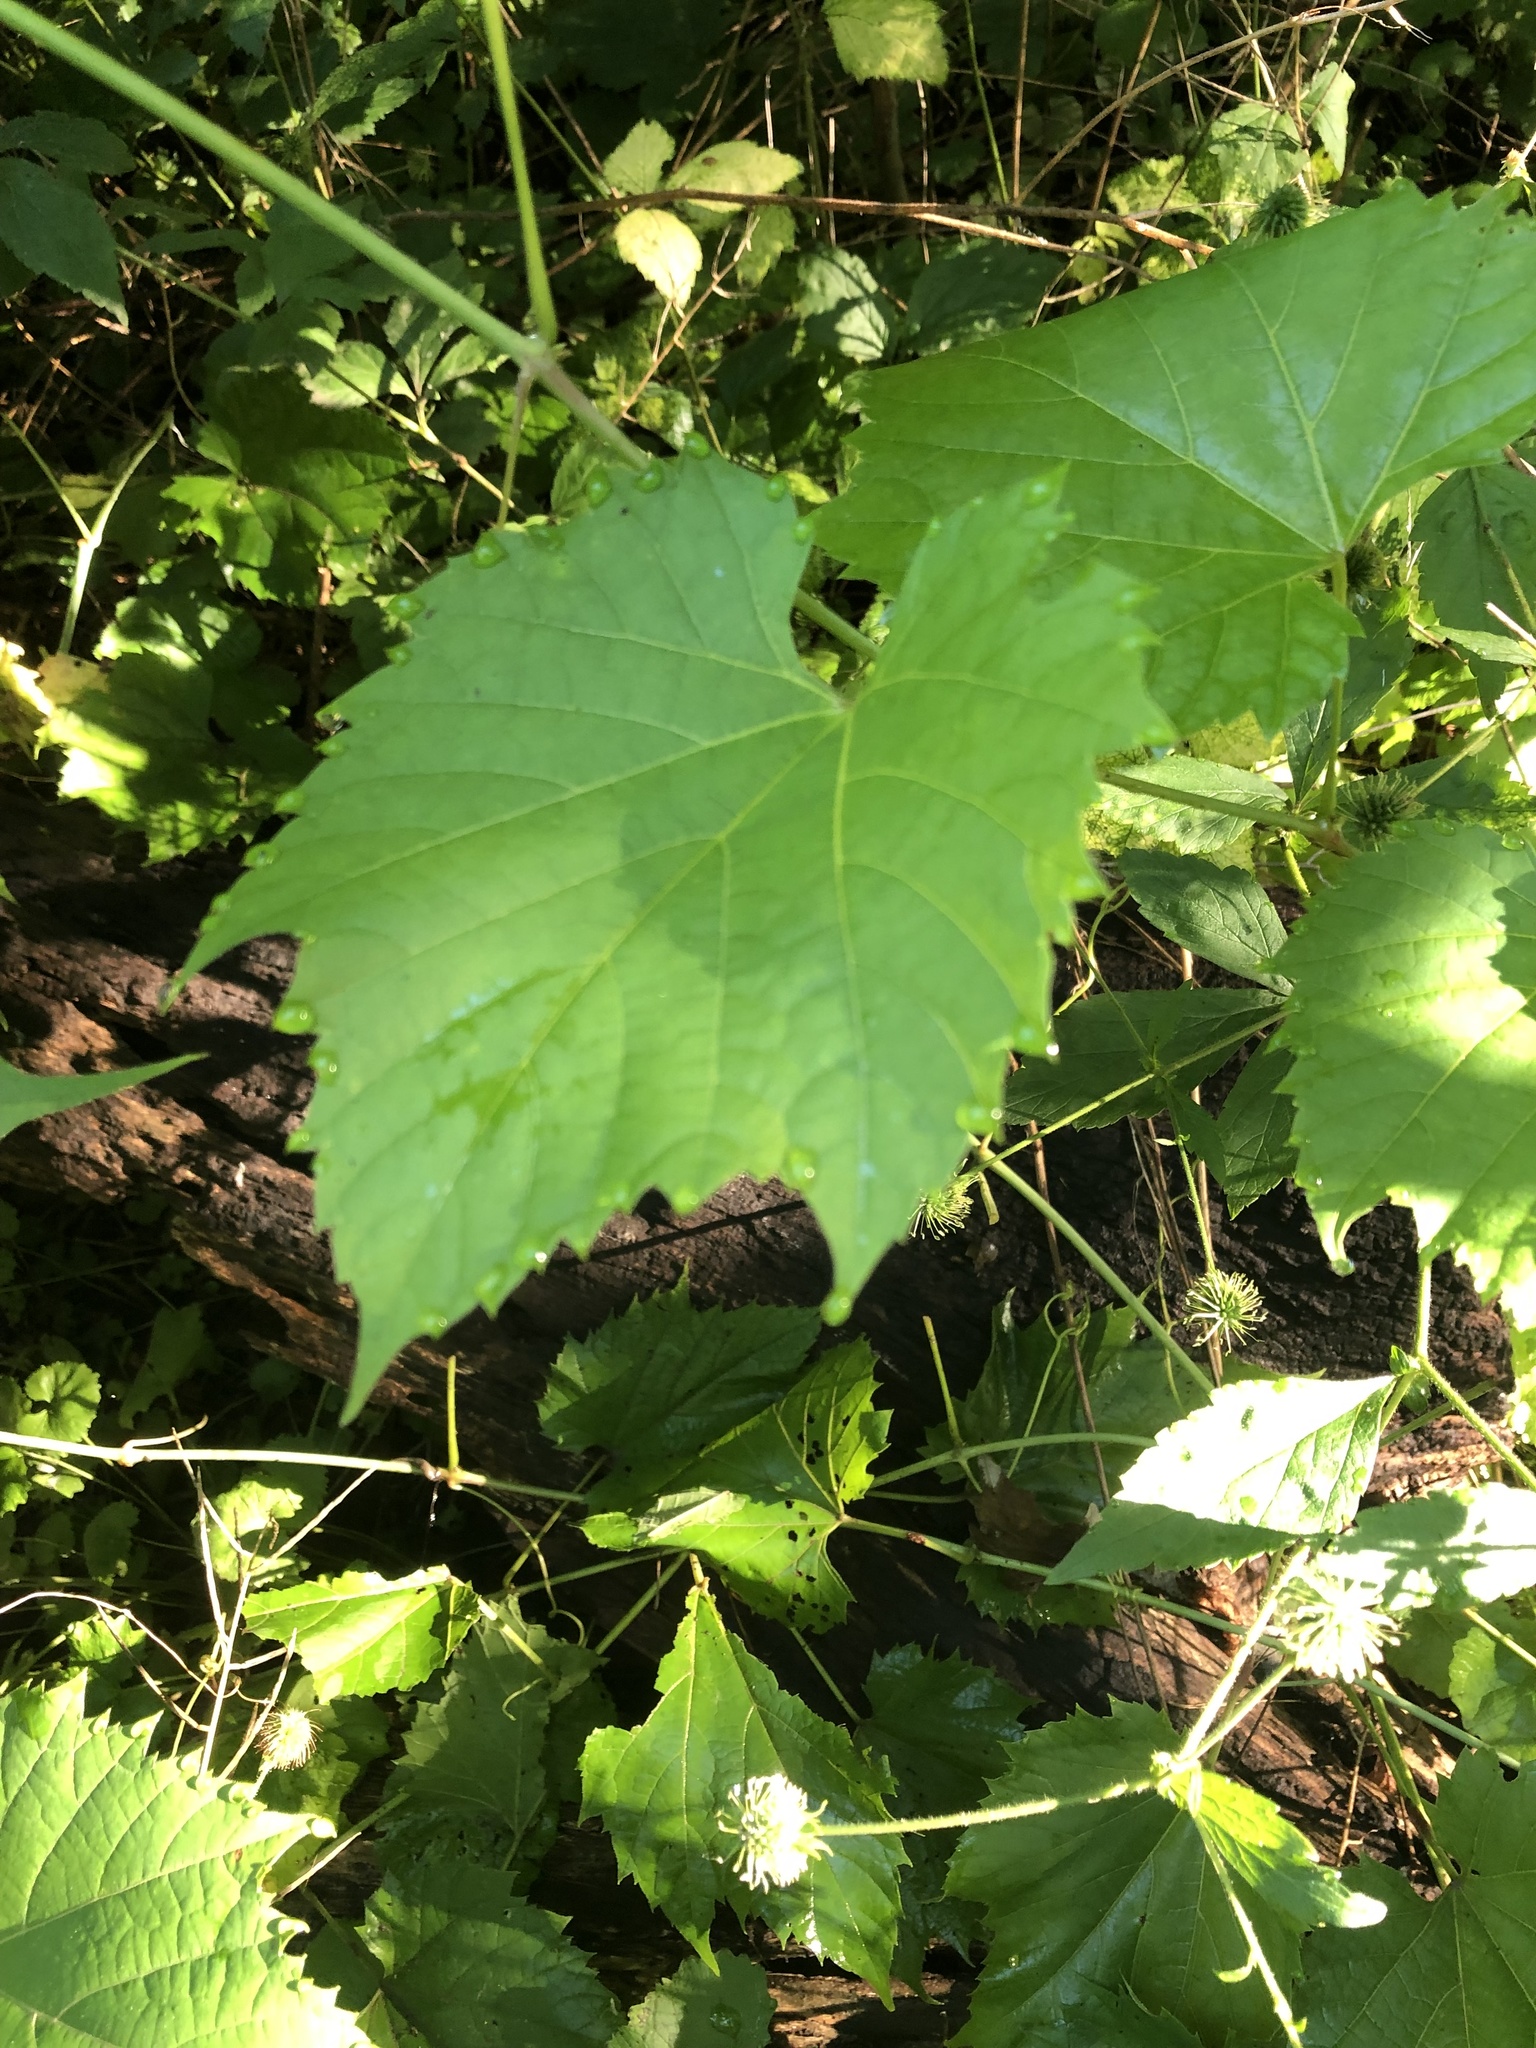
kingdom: Plantae
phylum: Tracheophyta
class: Magnoliopsida
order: Vitales
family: Vitaceae
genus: Vitis
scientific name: Vitis riparia
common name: Frost grape
